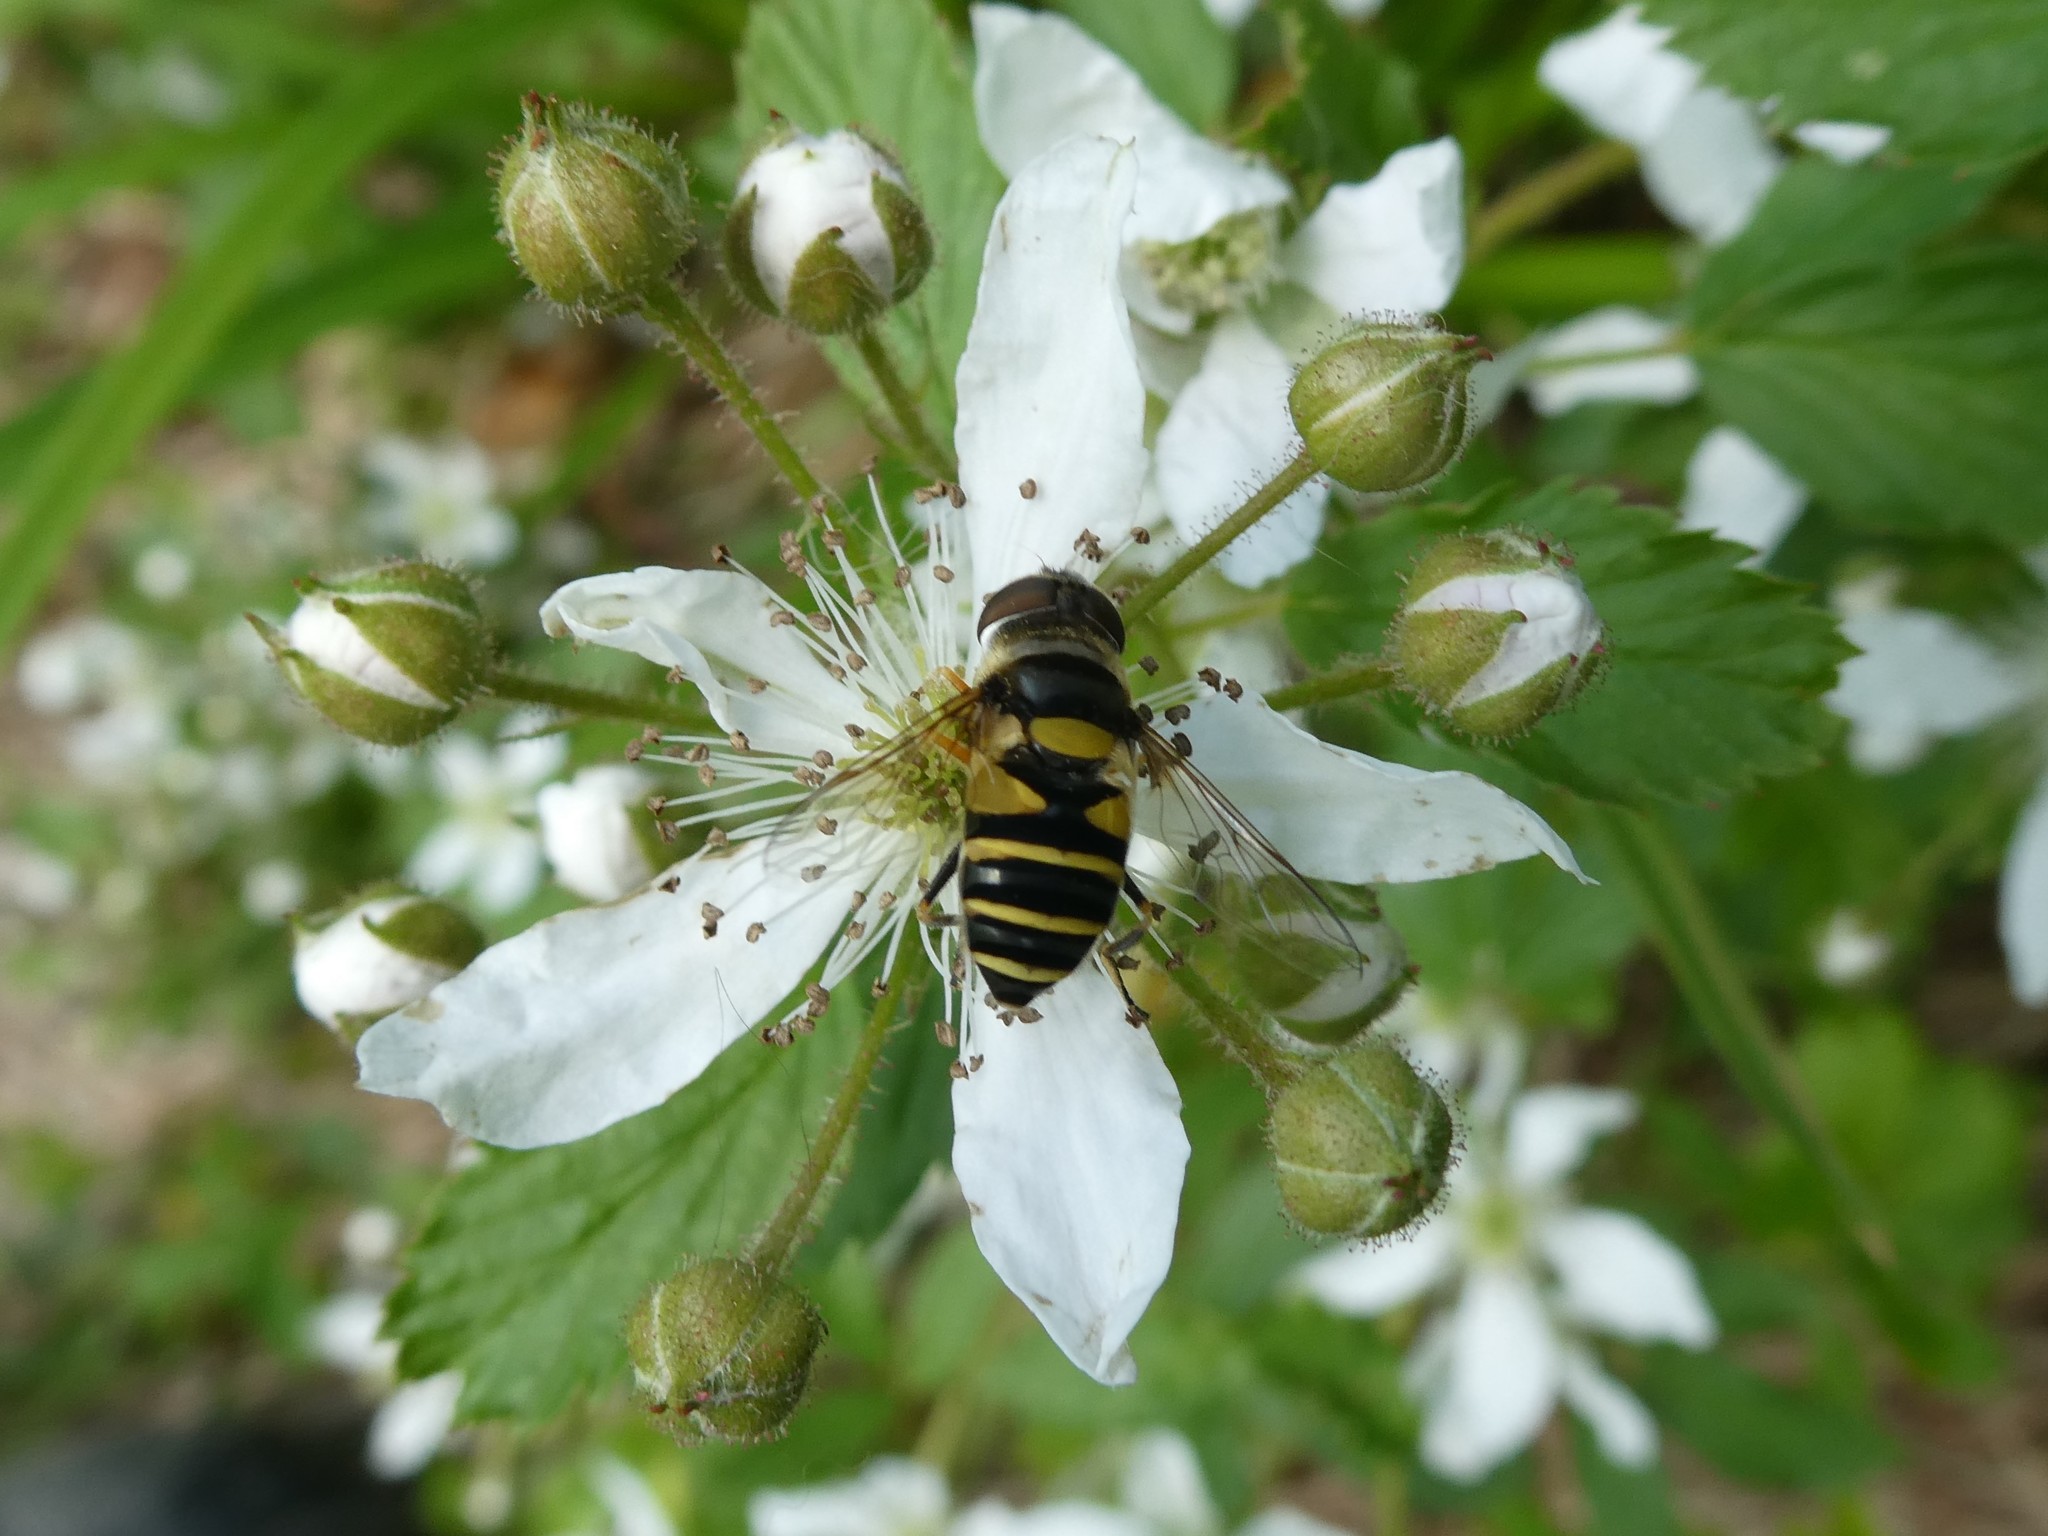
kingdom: Animalia
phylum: Arthropoda
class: Insecta
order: Diptera
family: Syrphidae
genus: Eristalis
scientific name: Eristalis transversa
